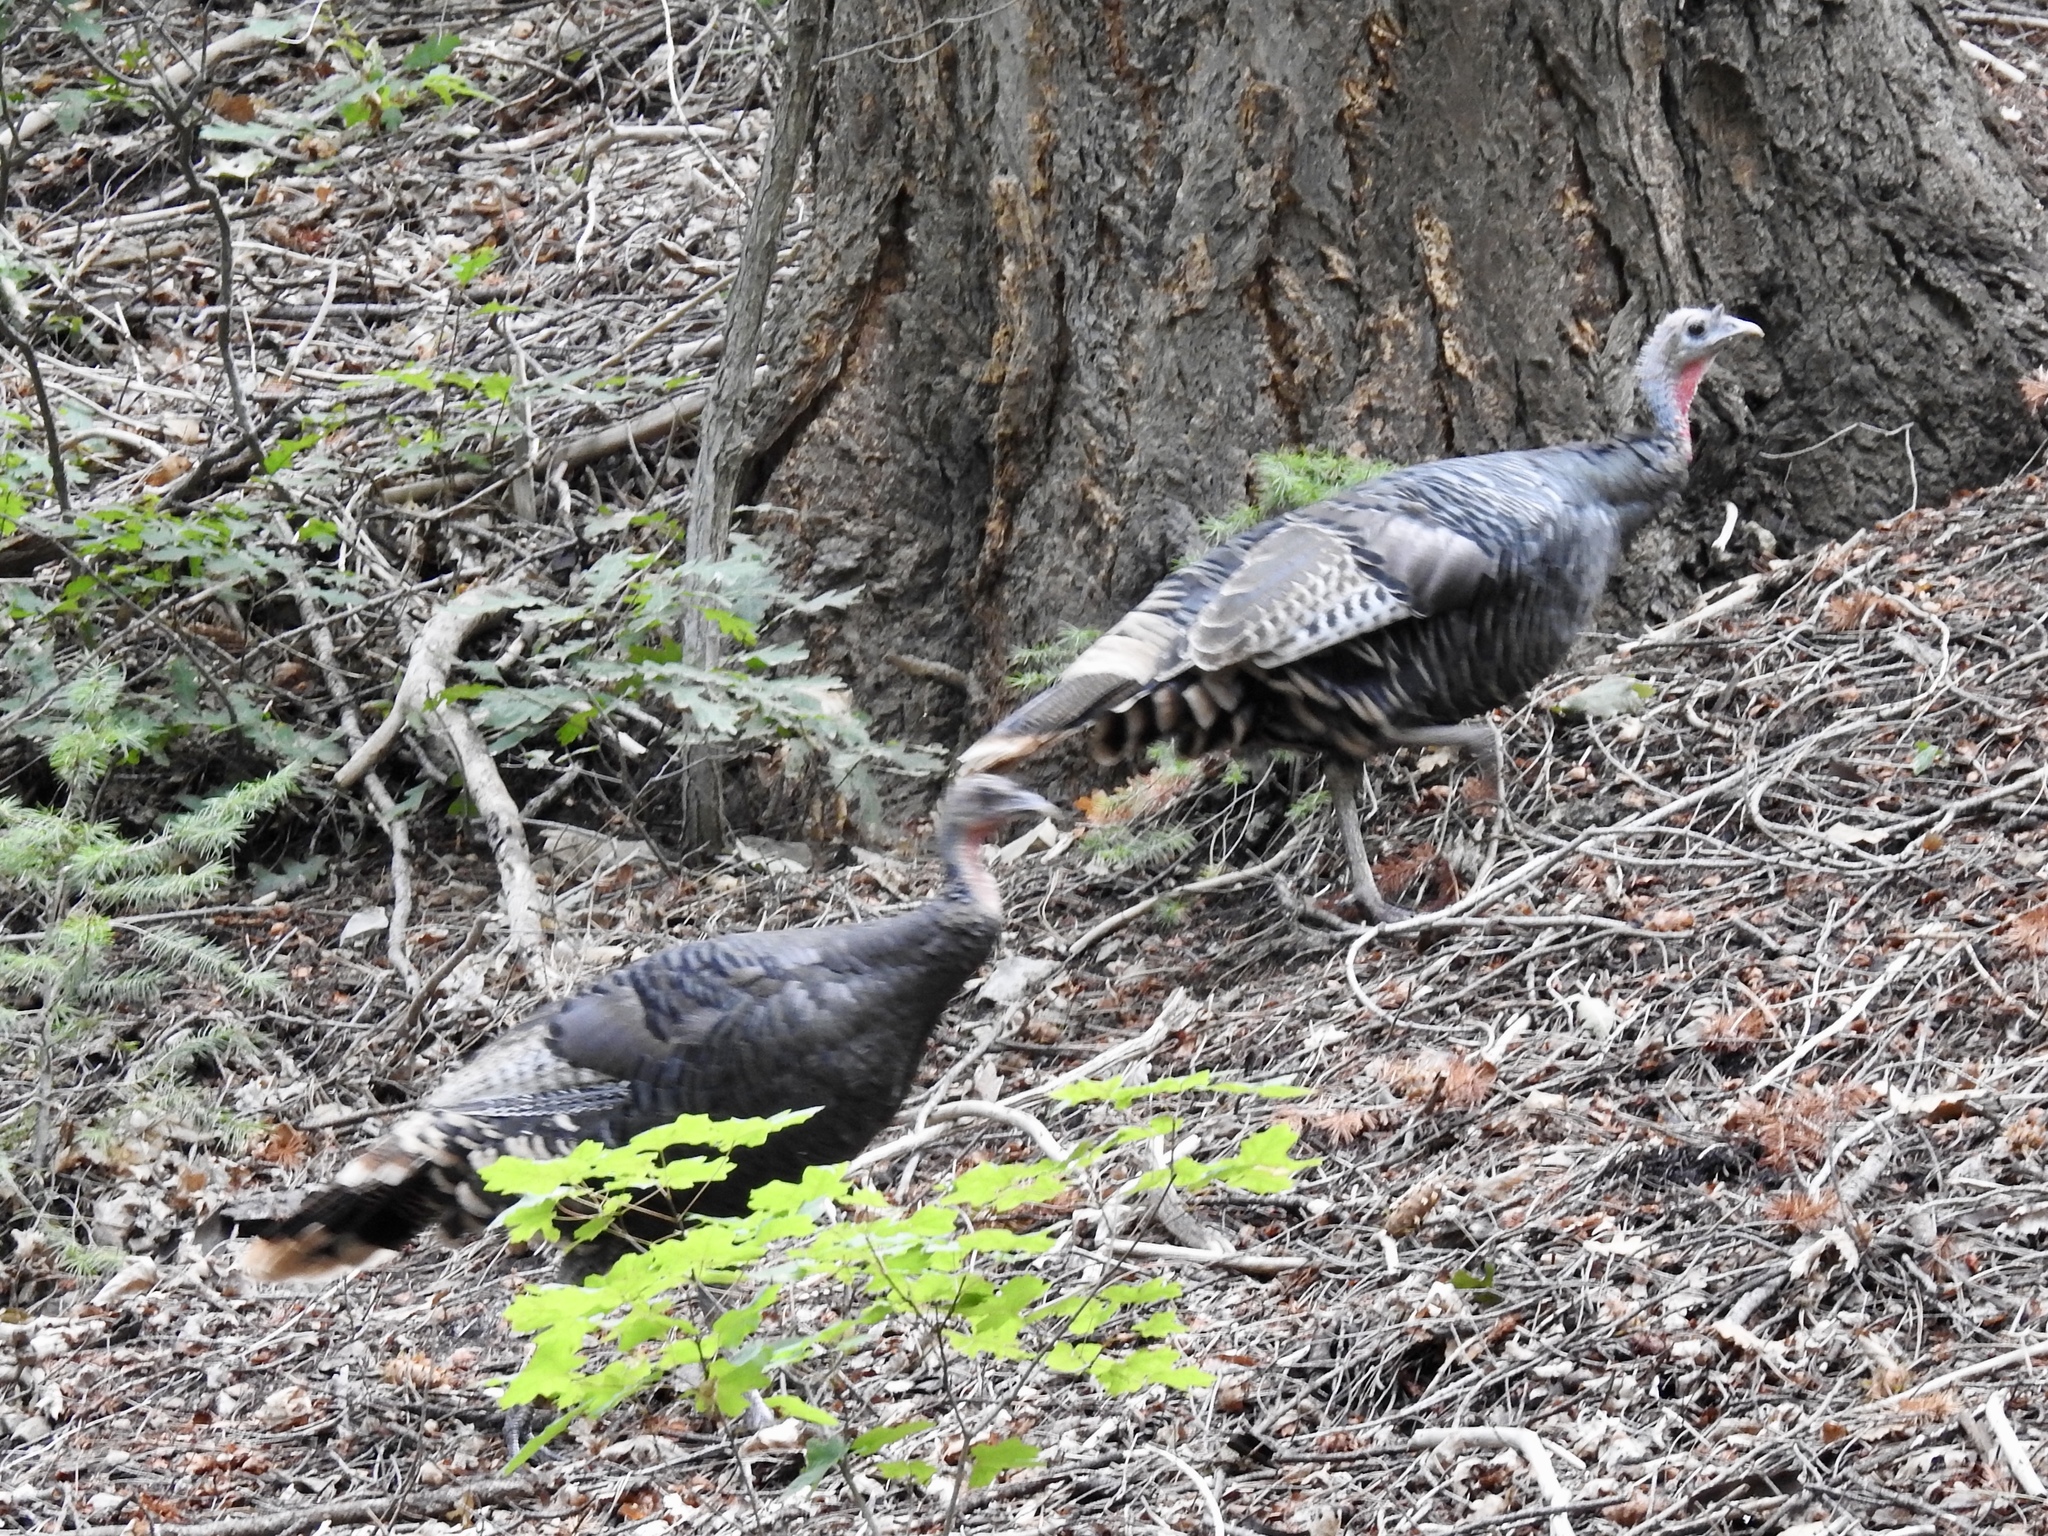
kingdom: Animalia
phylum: Chordata
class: Aves
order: Galliformes
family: Phasianidae
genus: Meleagris
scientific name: Meleagris gallopavo
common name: Wild turkey
